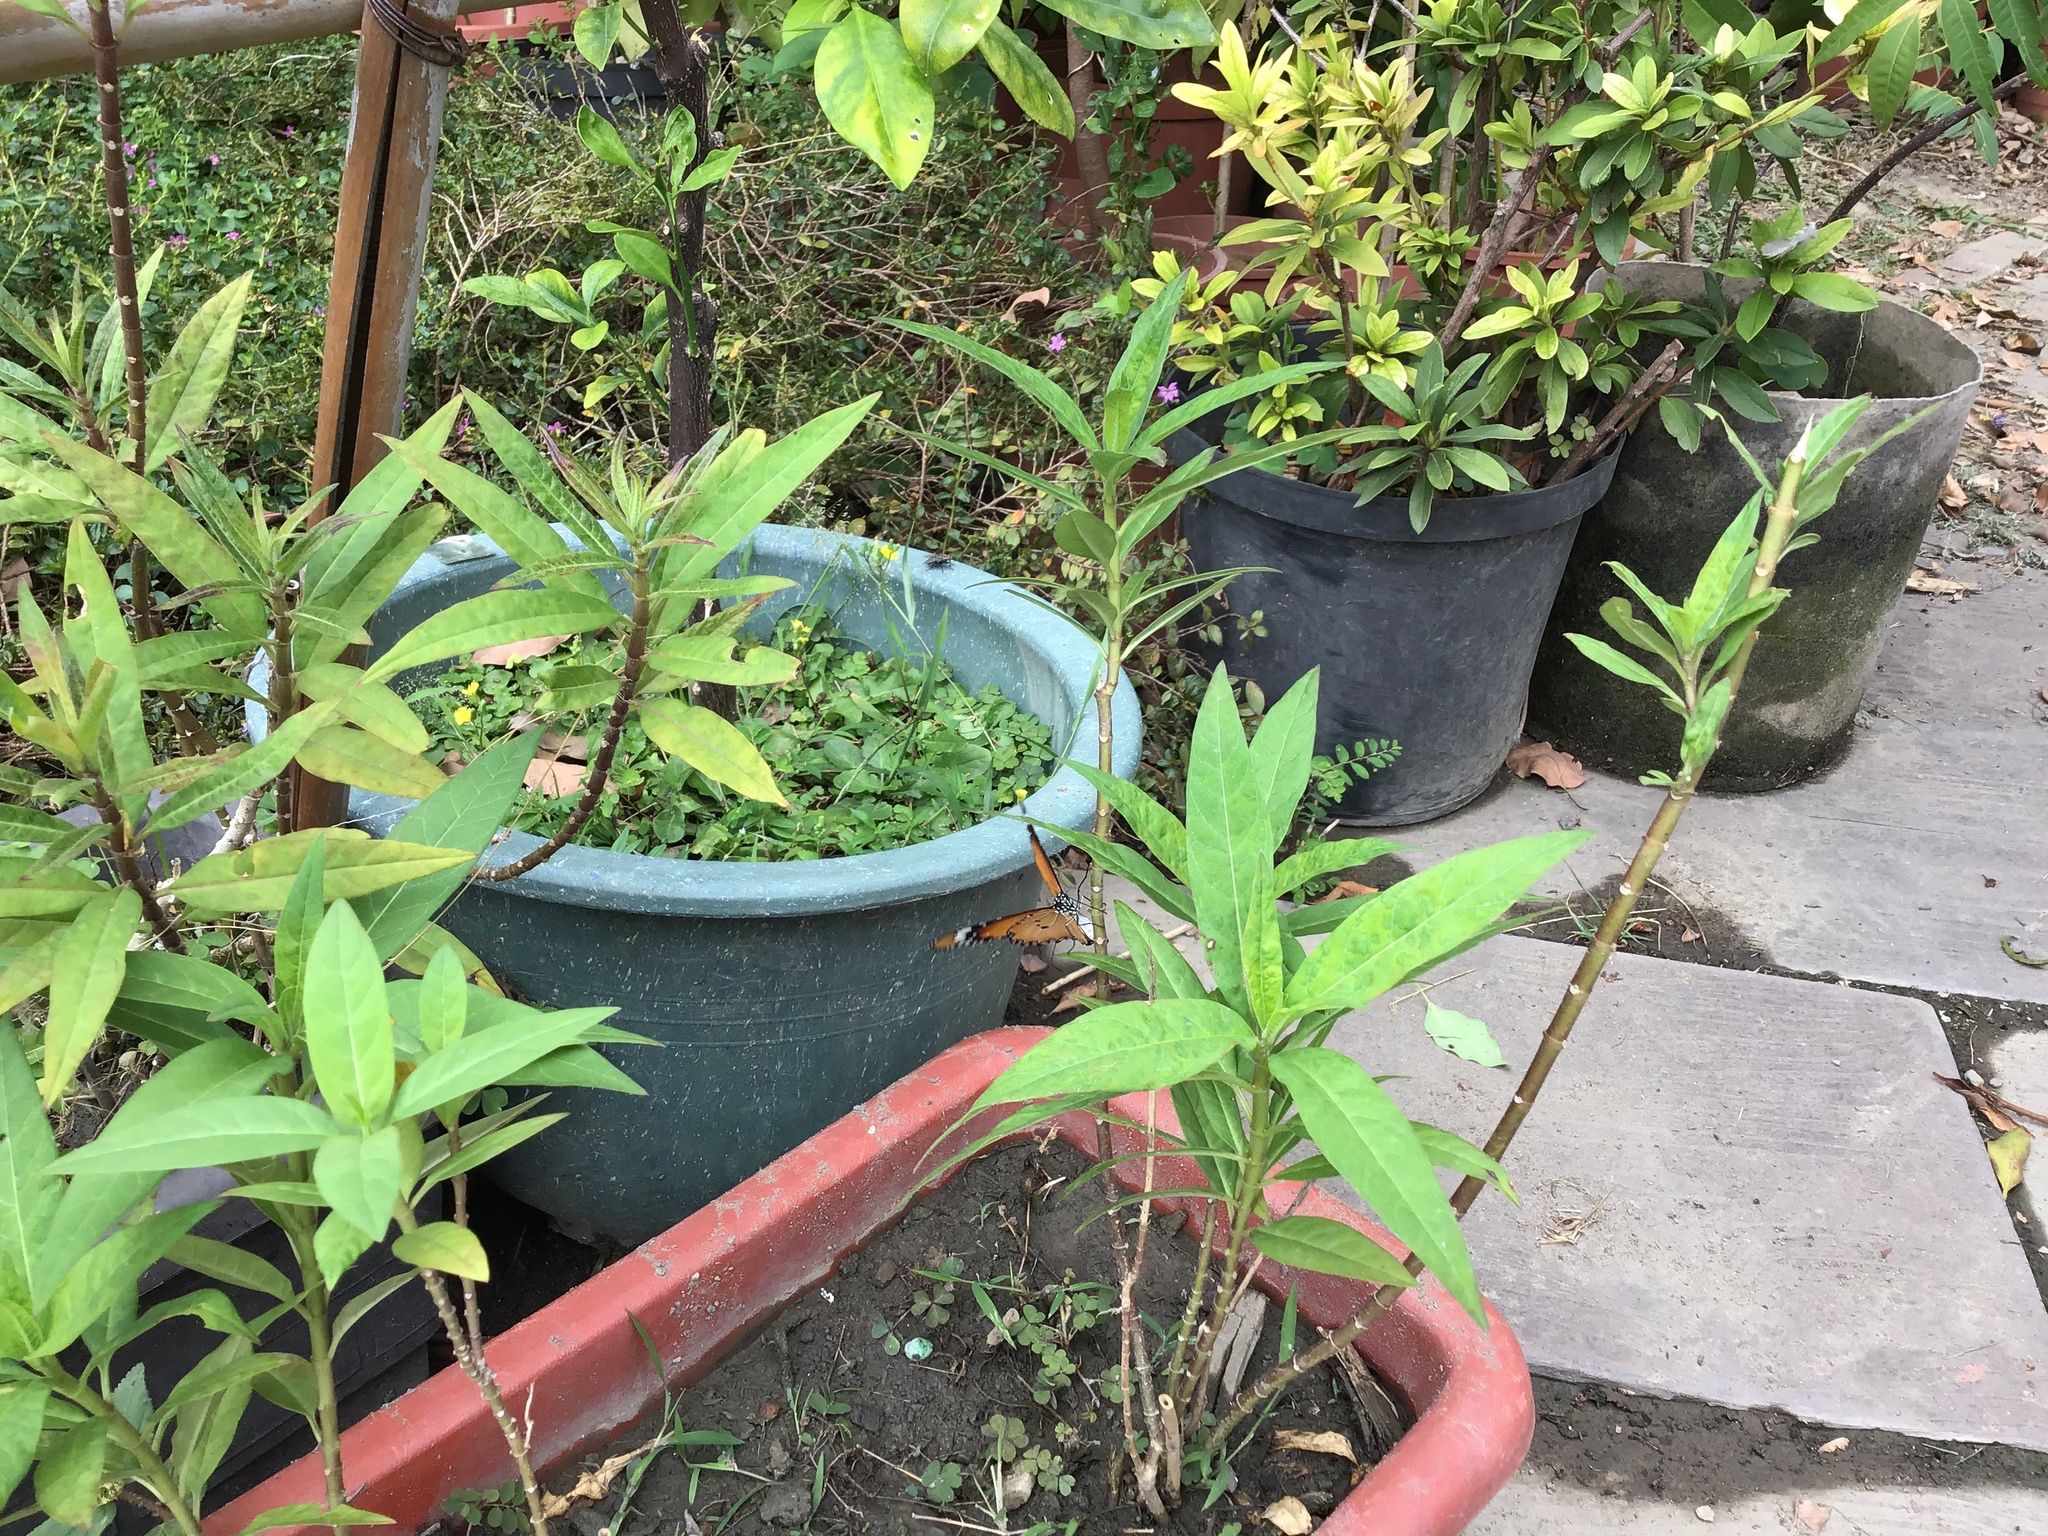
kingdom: Animalia
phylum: Arthropoda
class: Insecta
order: Lepidoptera
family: Nymphalidae
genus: Danaus
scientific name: Danaus chrysippus
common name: Plain tiger
